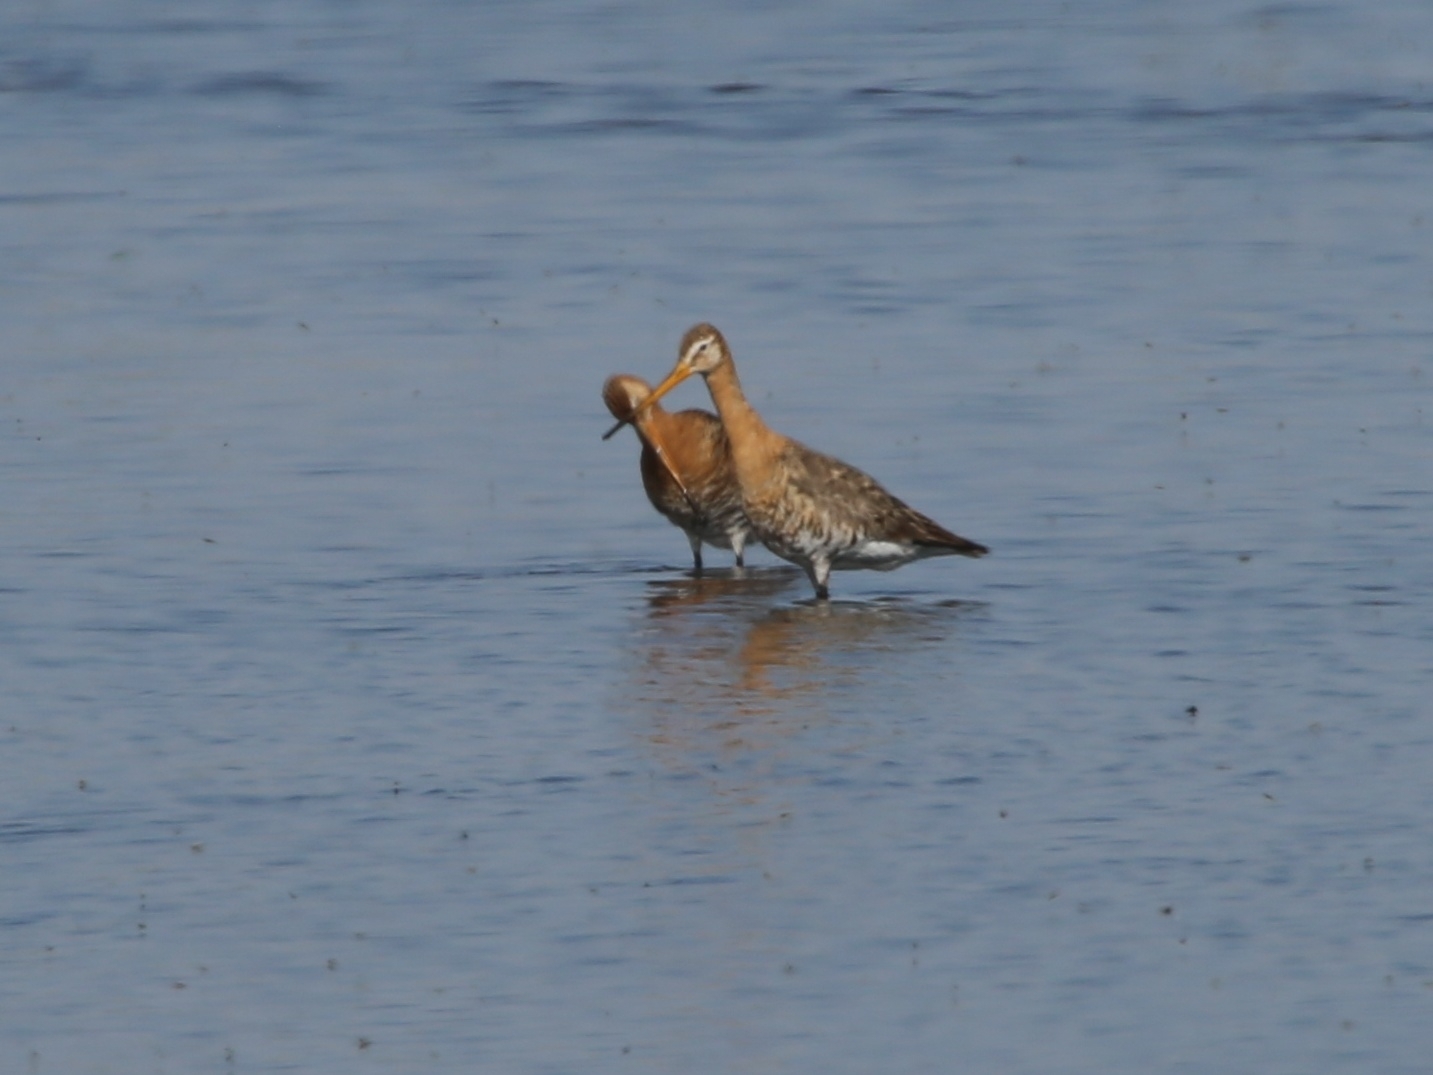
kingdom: Animalia
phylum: Chordata
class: Aves
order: Charadriiformes
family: Scolopacidae
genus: Limosa
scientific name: Limosa limosa
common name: Black-tailed godwit
